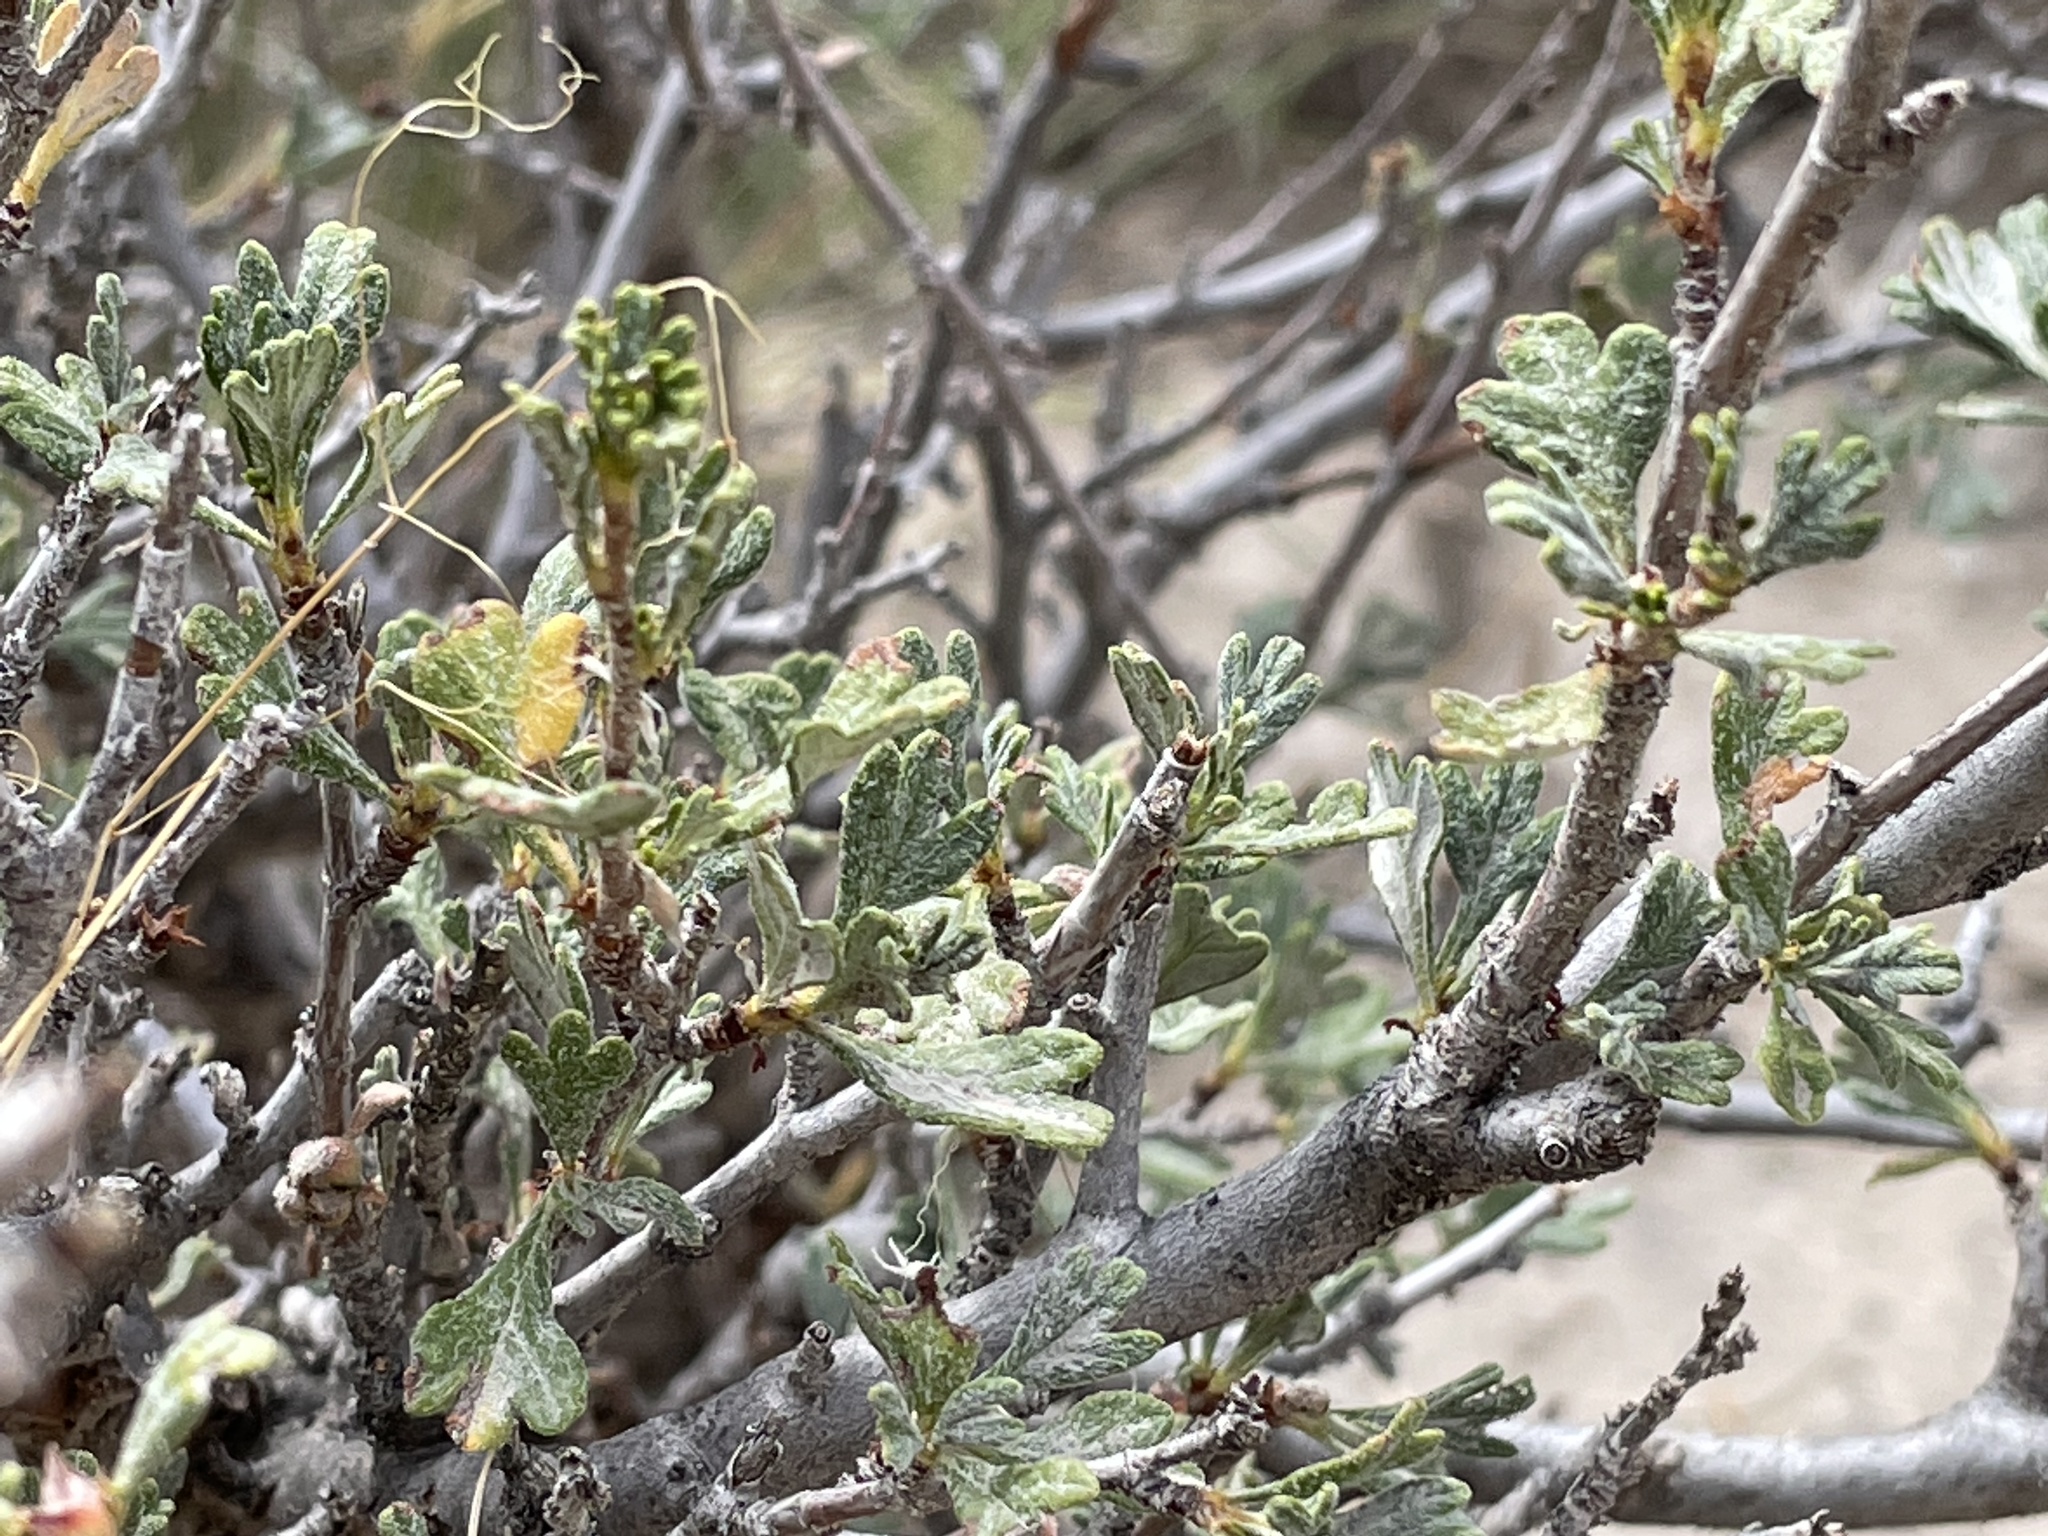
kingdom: Plantae
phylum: Tracheophyta
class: Magnoliopsida
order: Rosales
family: Rosaceae
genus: Purshia
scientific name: Purshia tridentata
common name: Antelope bitterbrush
